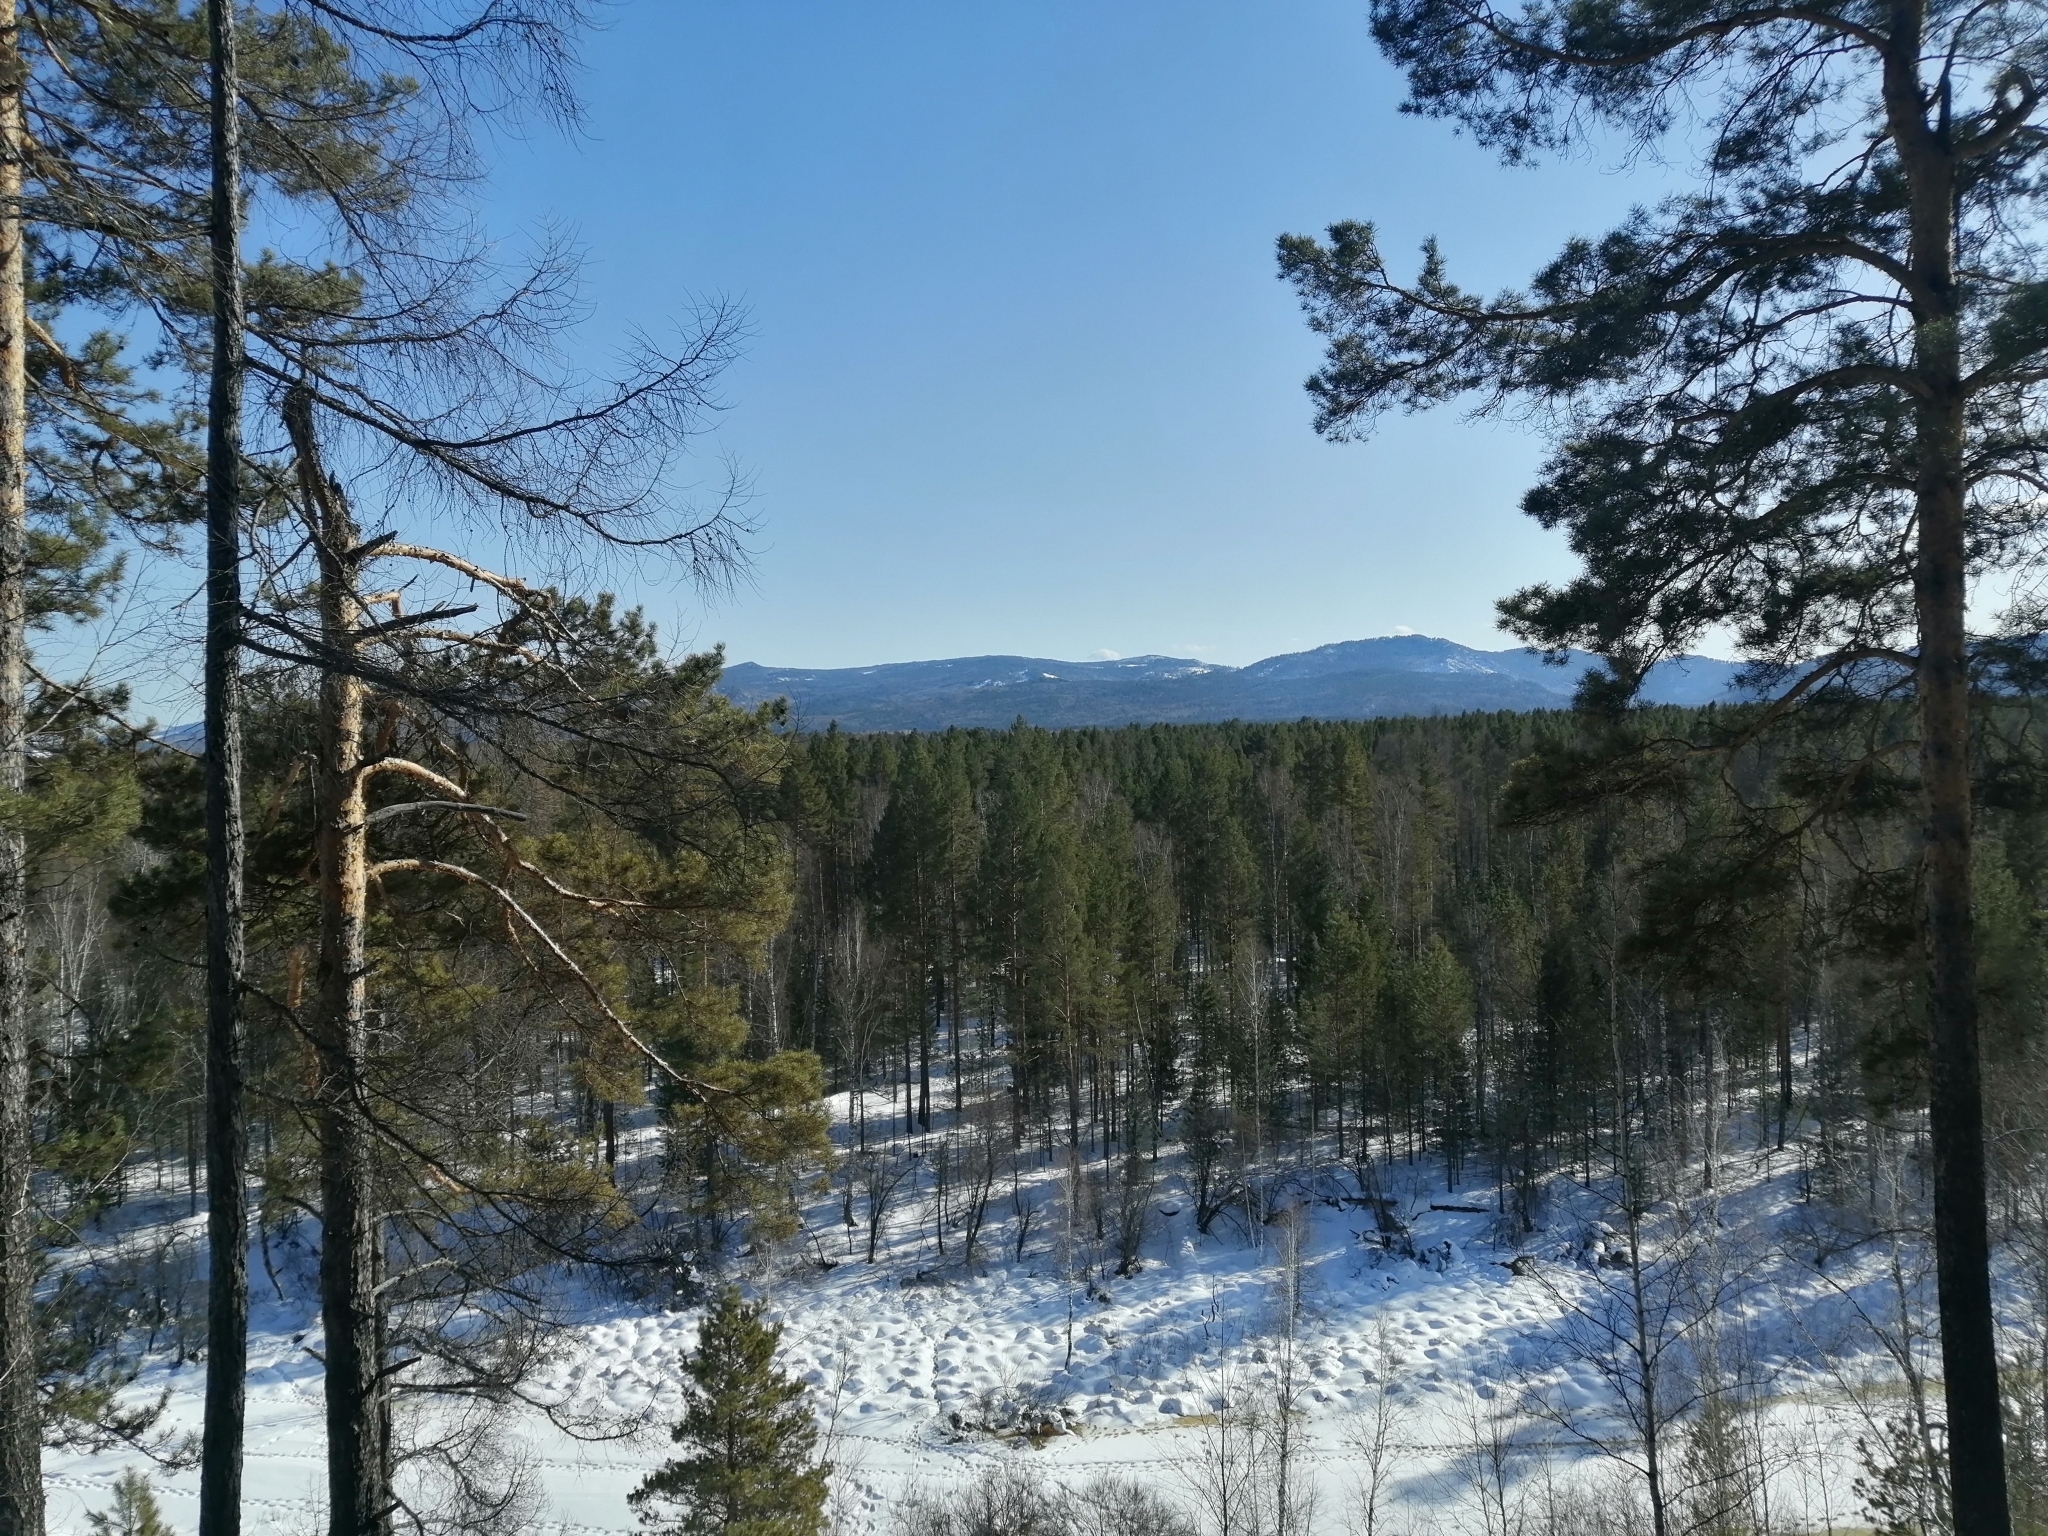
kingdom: Plantae
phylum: Tracheophyta
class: Pinopsida
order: Pinales
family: Pinaceae
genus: Pinus
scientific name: Pinus sylvestris
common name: Scots pine
